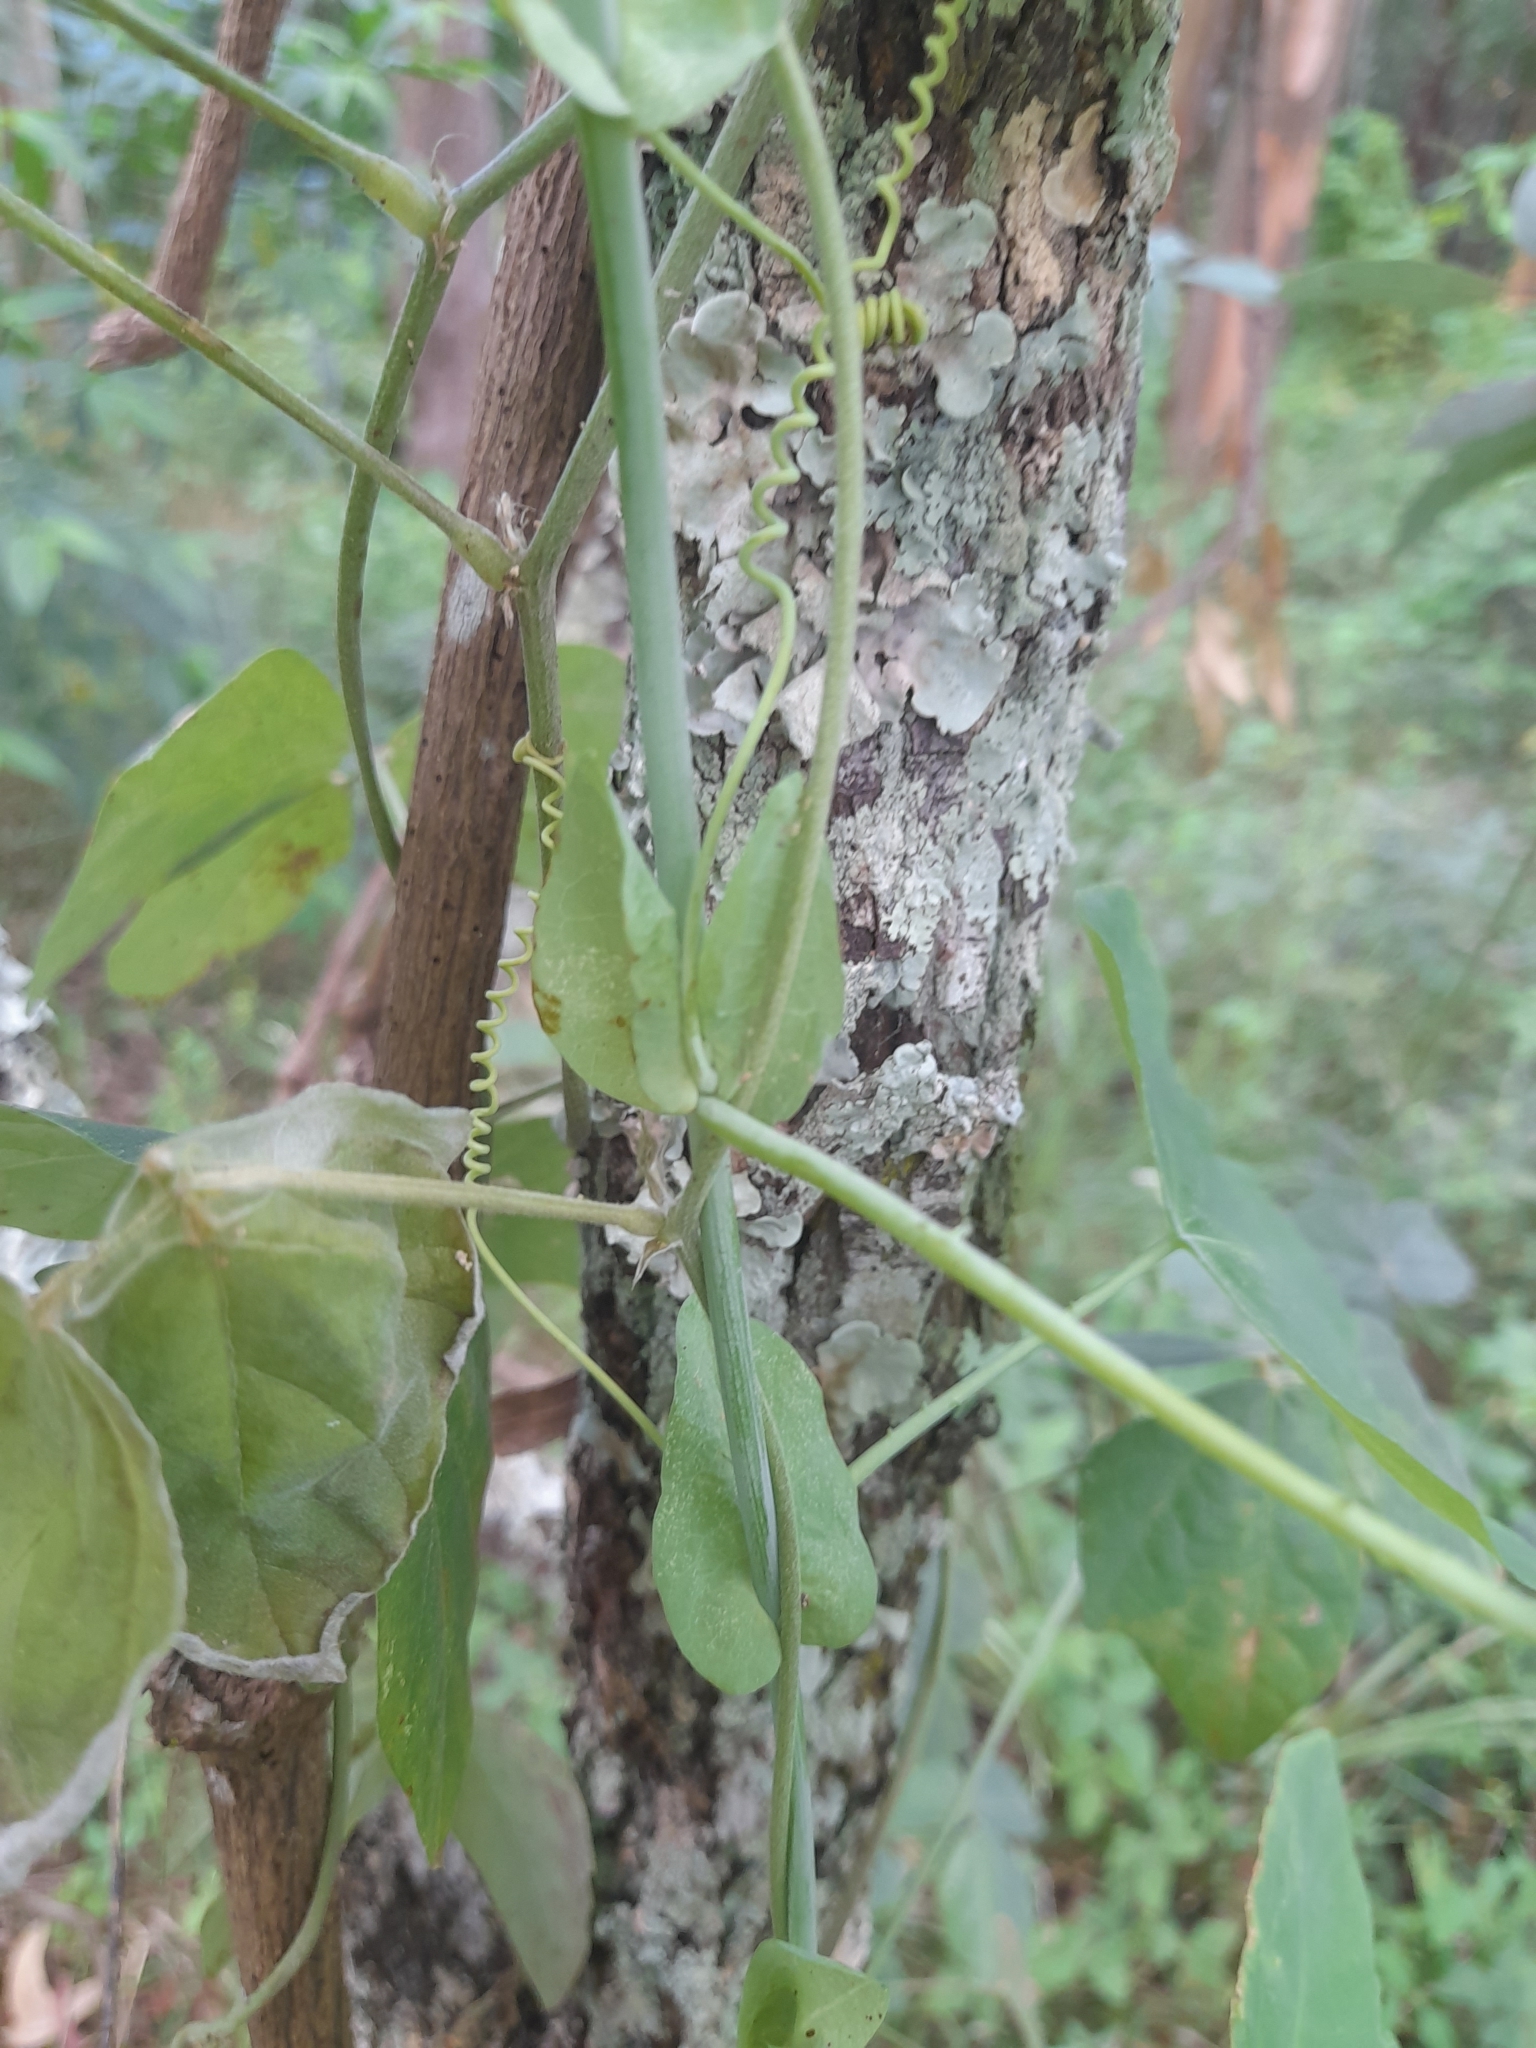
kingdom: Plantae
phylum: Tracheophyta
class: Magnoliopsida
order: Malpighiales
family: Passifloraceae
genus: Passiflora
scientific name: Passiflora subpeltata
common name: White passionflower
